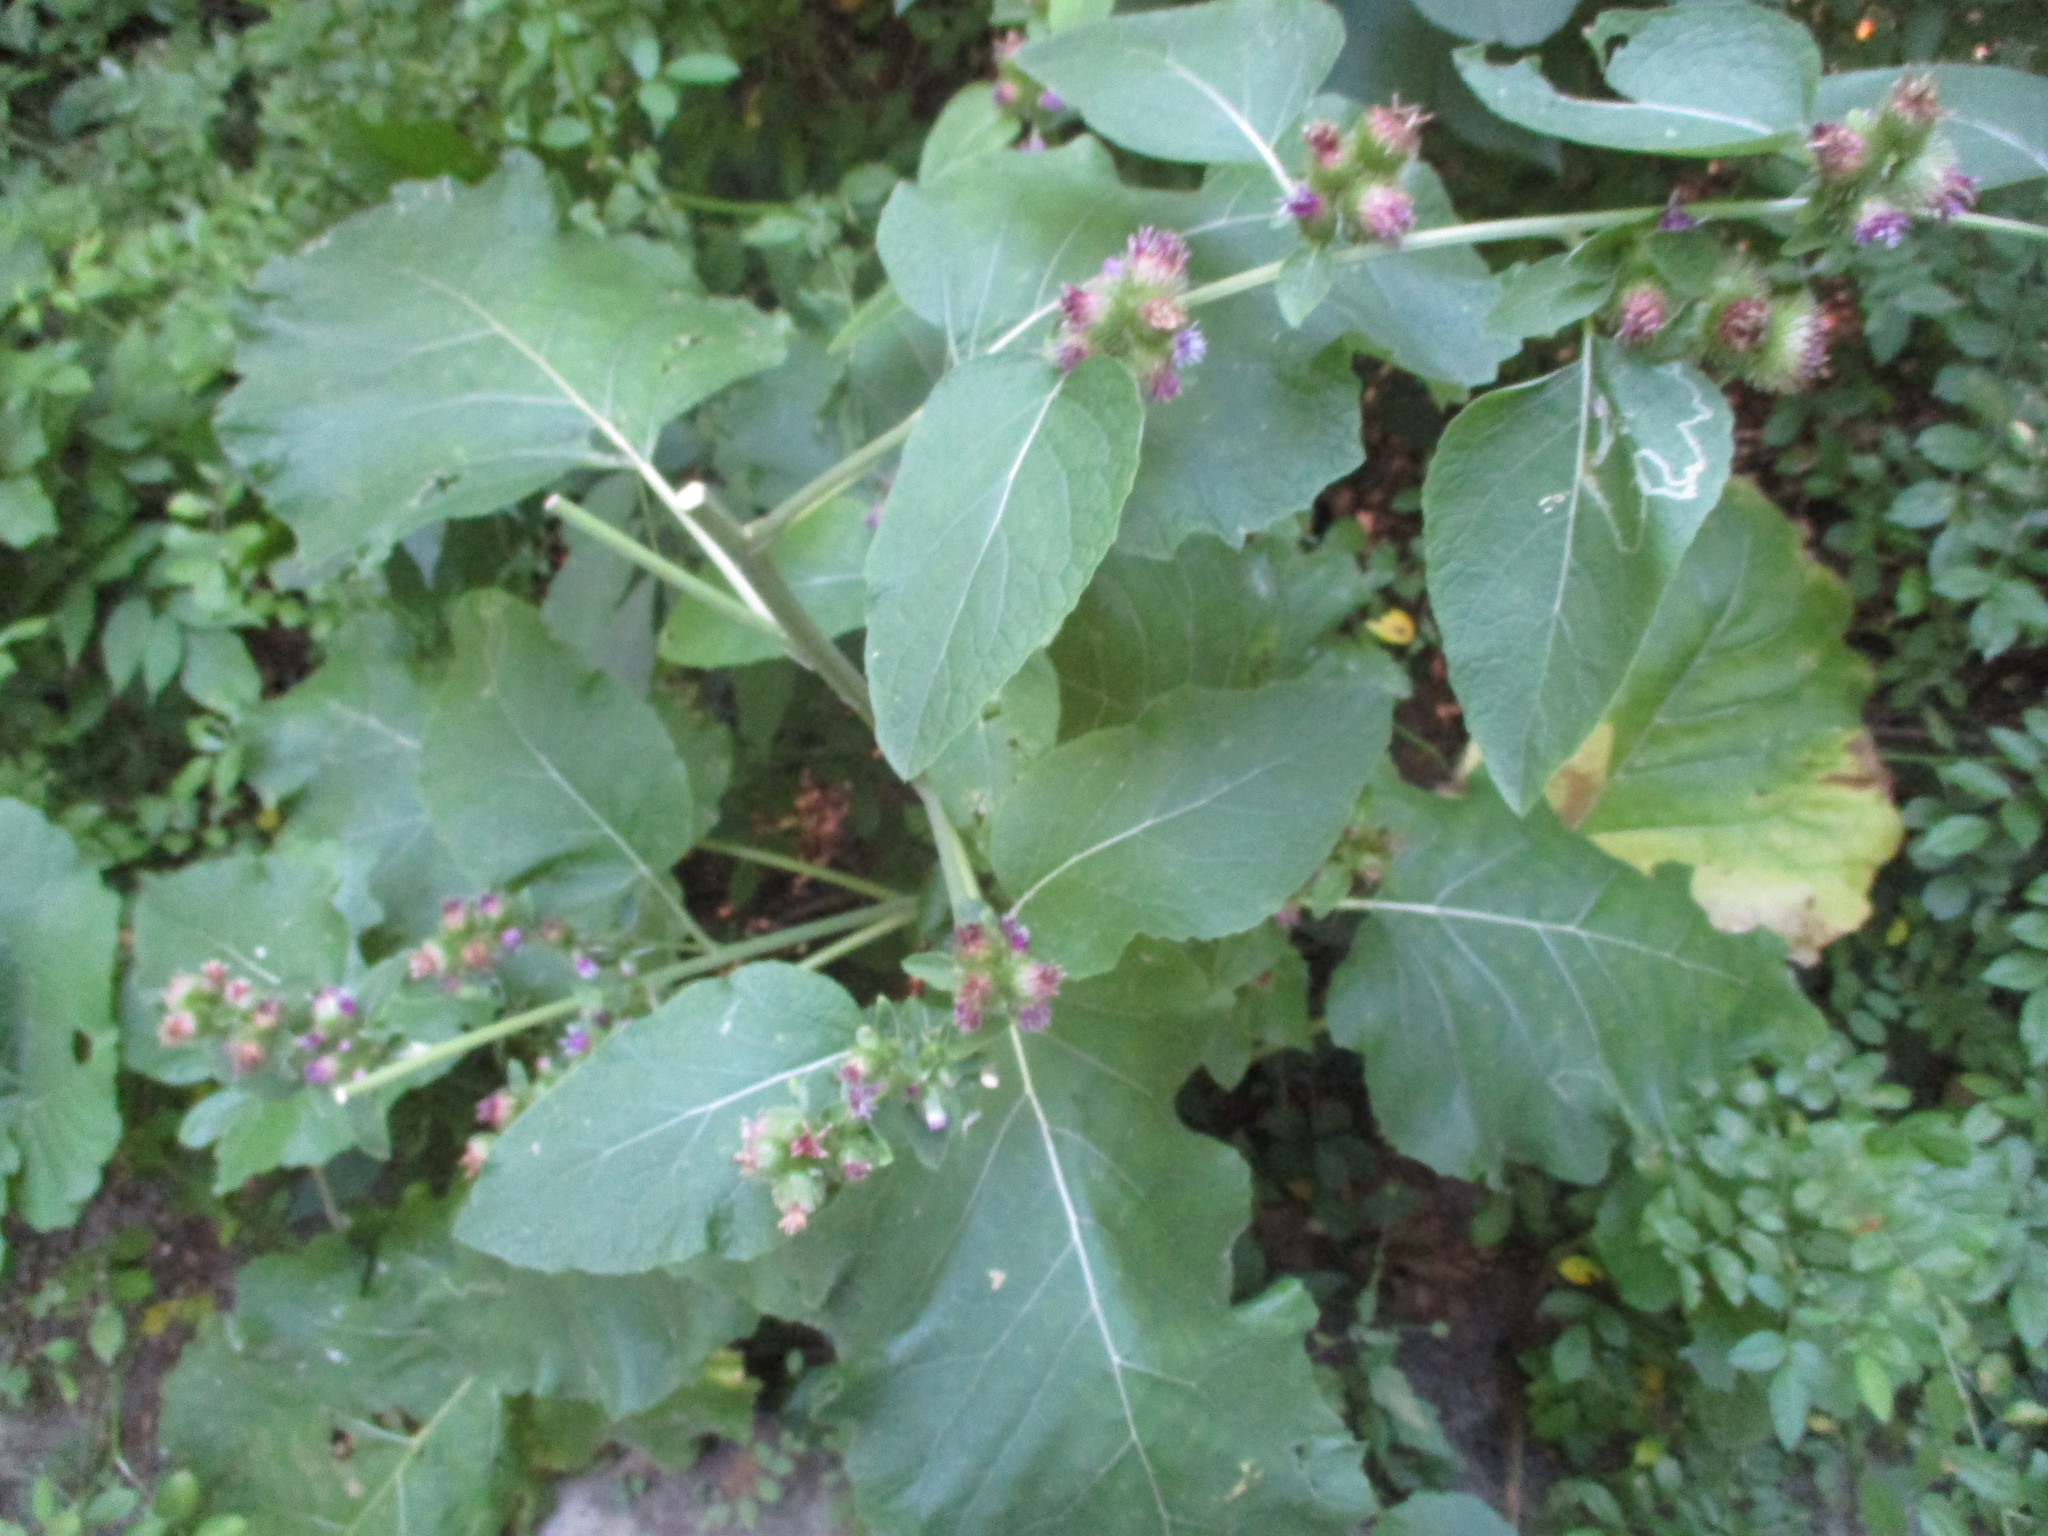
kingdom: Plantae
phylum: Tracheophyta
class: Magnoliopsida
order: Asterales
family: Asteraceae
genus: Arctium
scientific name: Arctium minus
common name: Lesser burdock
